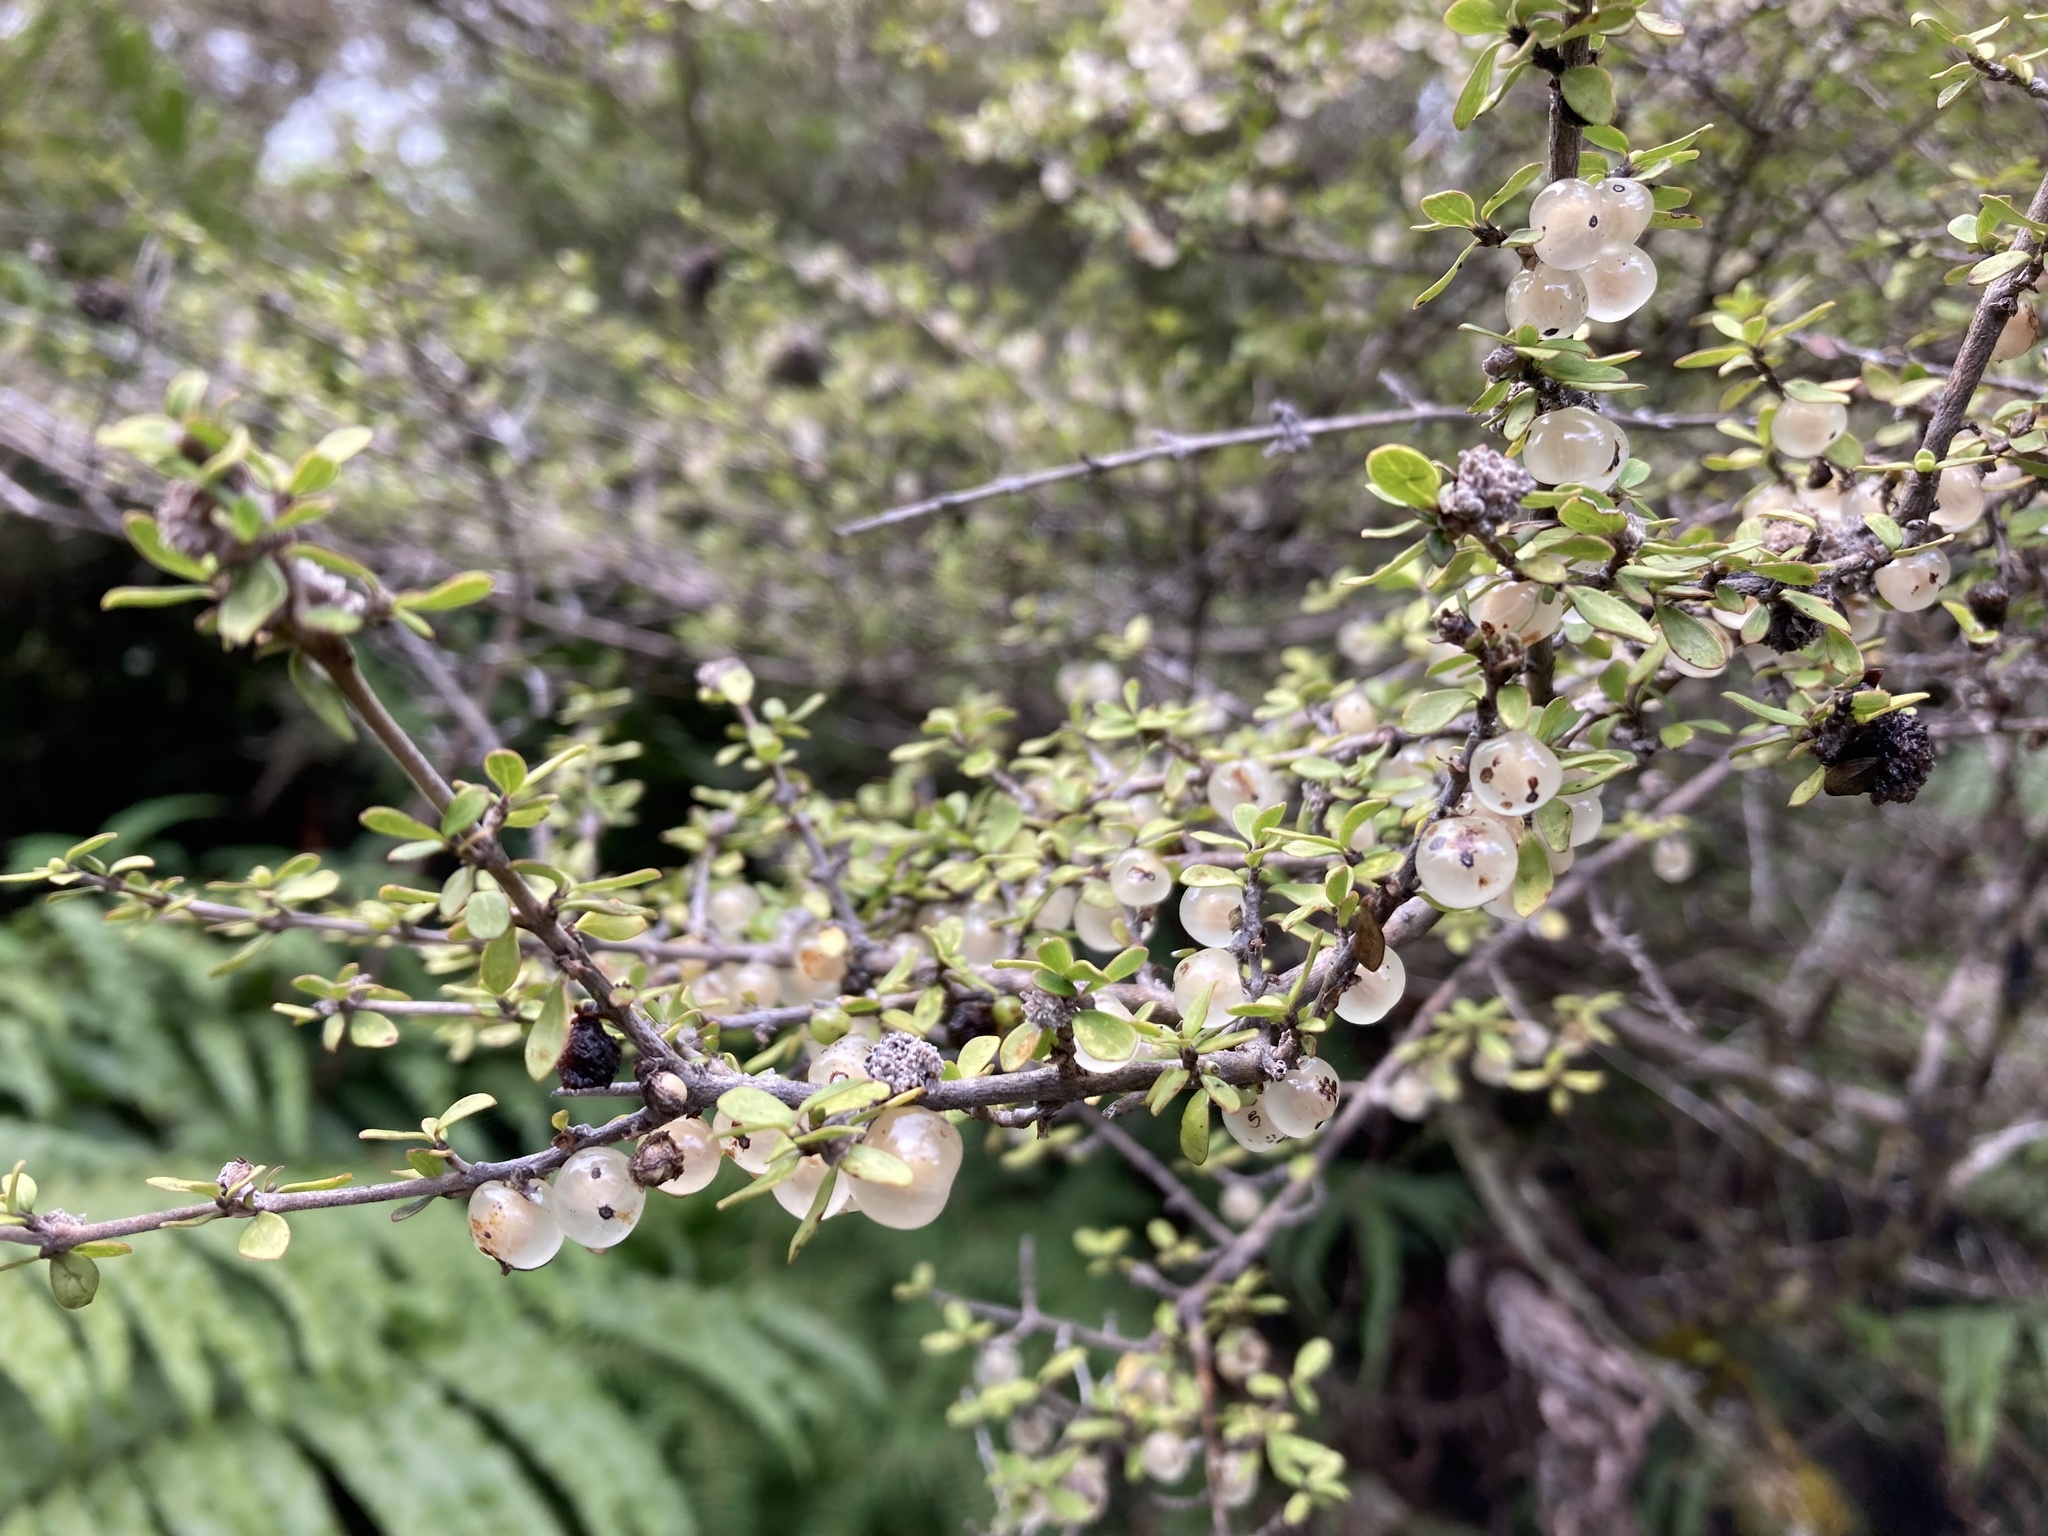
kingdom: Plantae
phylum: Tracheophyta
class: Magnoliopsida
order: Gentianales
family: Rubiaceae
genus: Coprosma
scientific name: Coprosma dumosa
